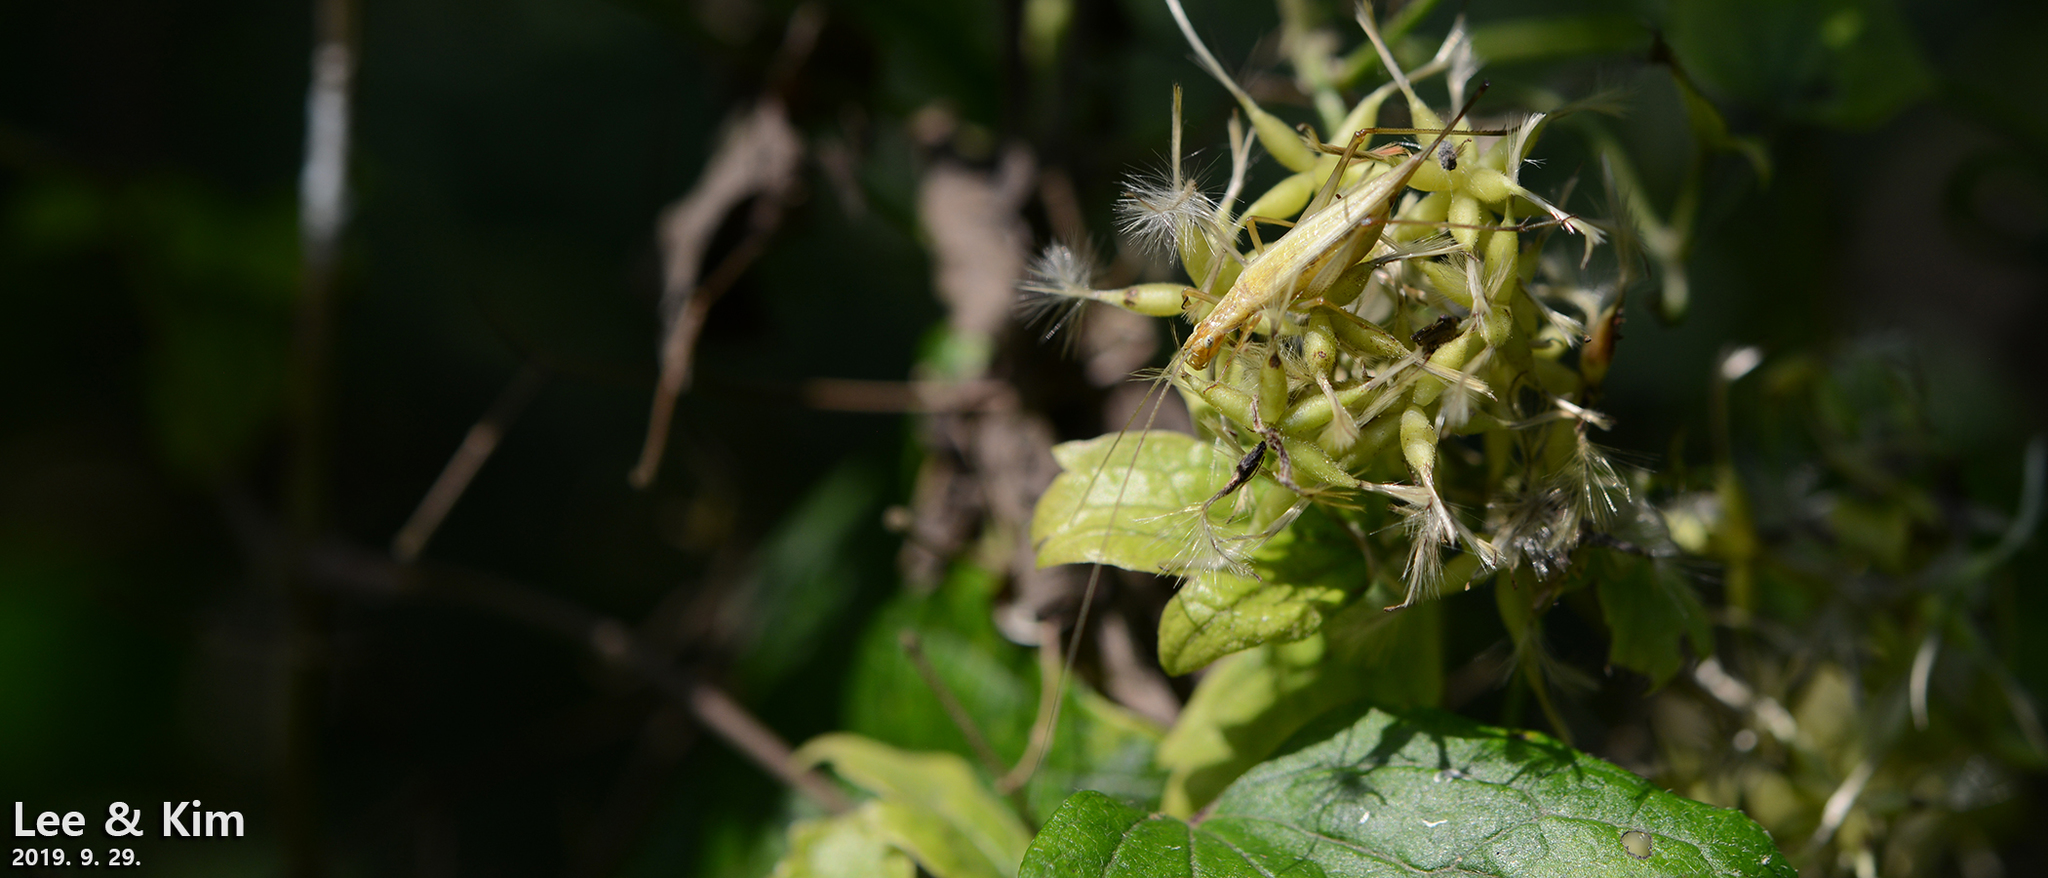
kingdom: Animalia
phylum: Arthropoda
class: Insecta
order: Orthoptera
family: Gryllidae
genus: Oecanthus
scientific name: Oecanthus longicauda
